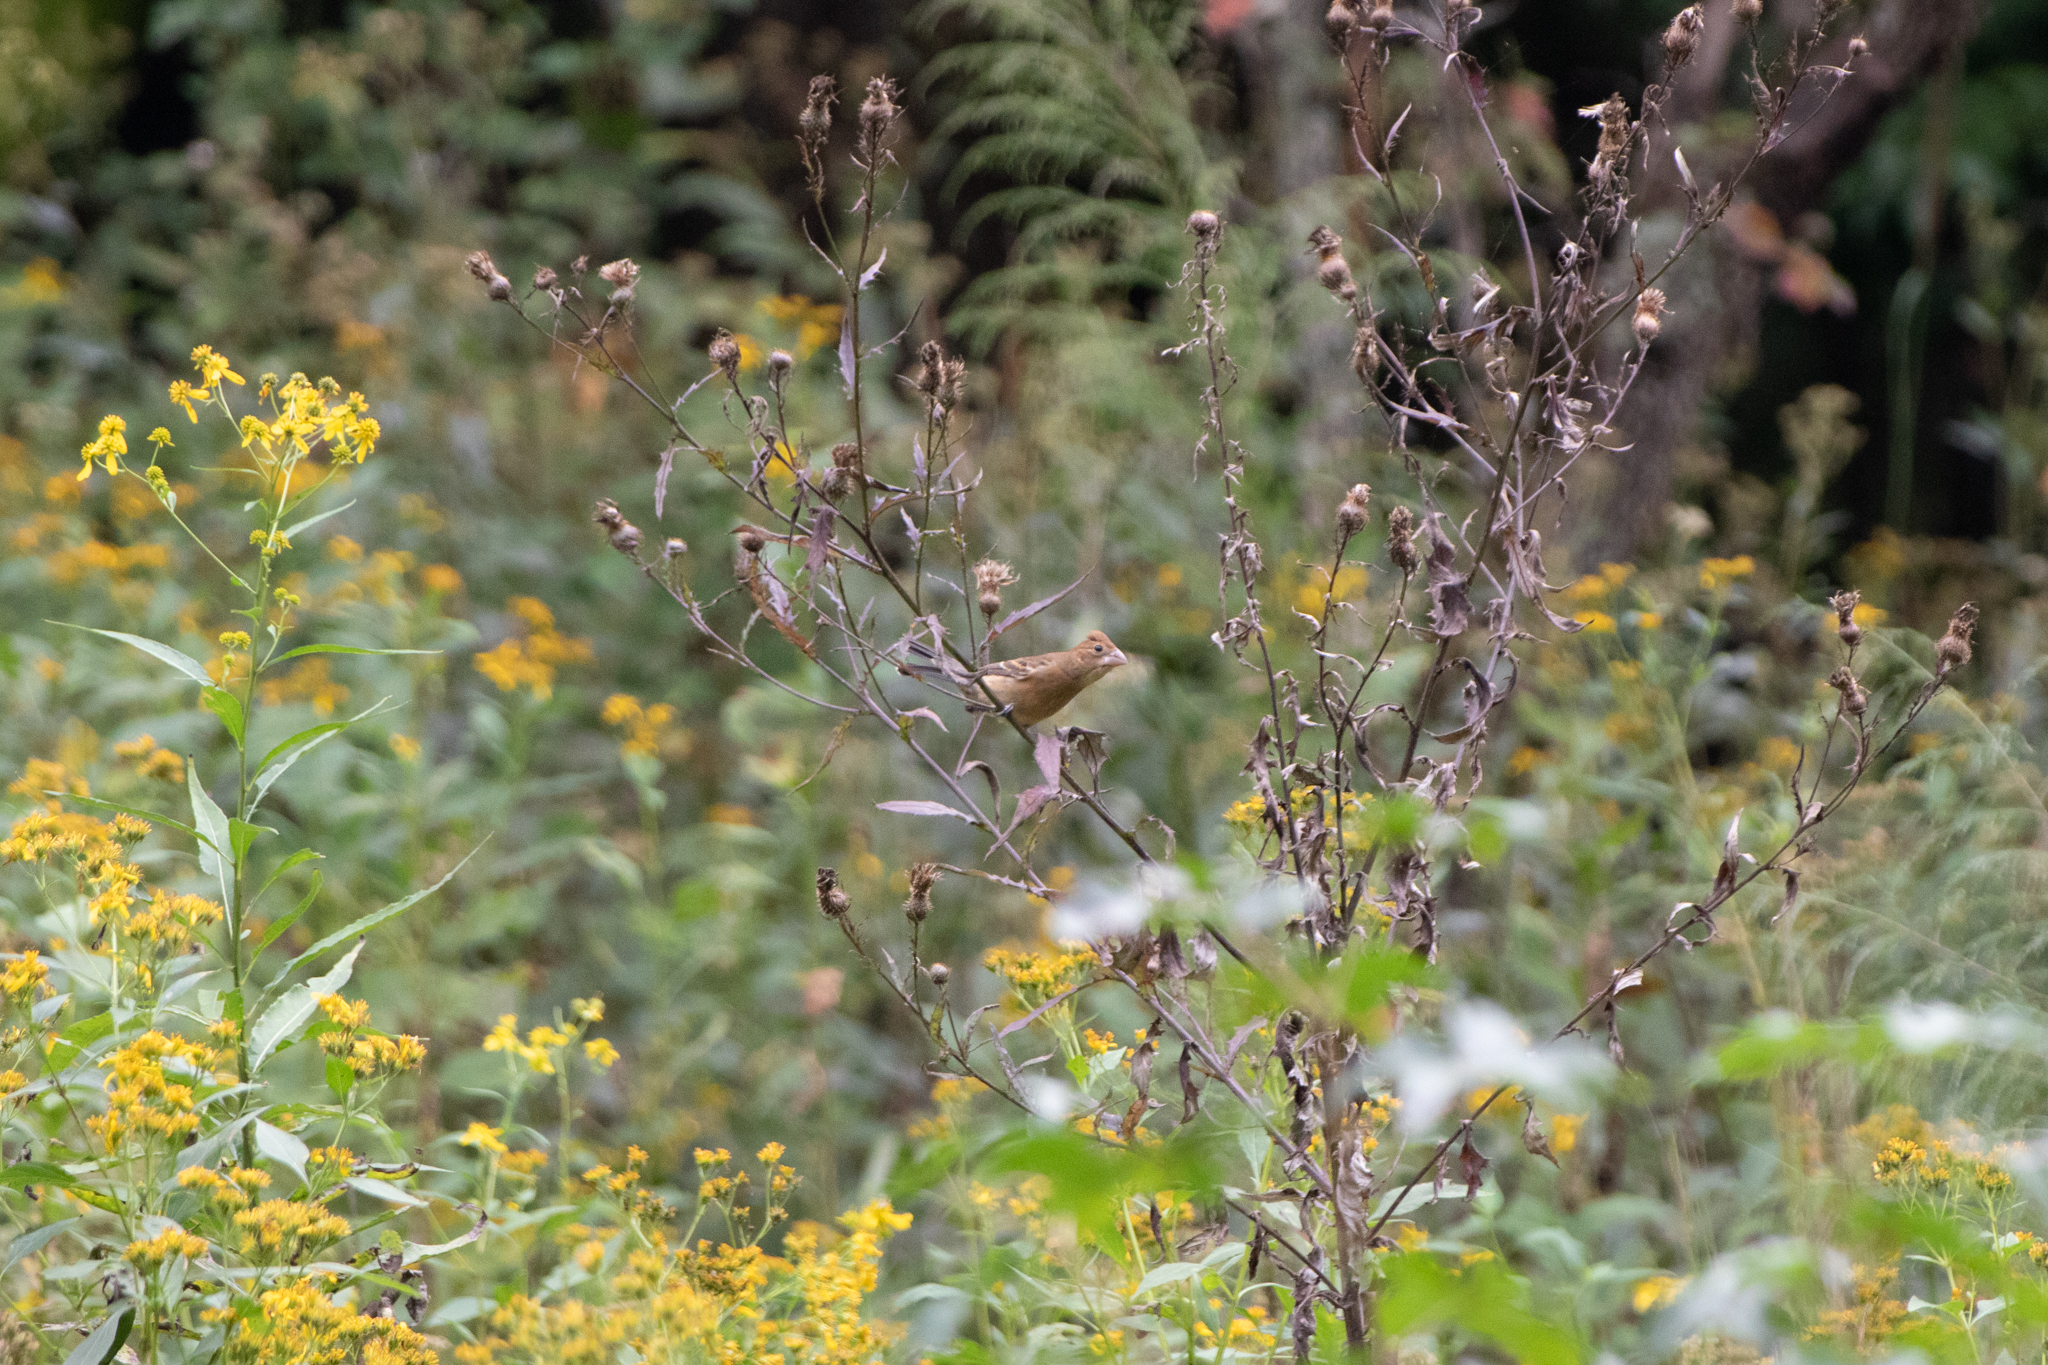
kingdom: Animalia
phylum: Chordata
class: Aves
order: Passeriformes
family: Cardinalidae
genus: Passerina
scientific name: Passerina caerulea
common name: Blue grosbeak
